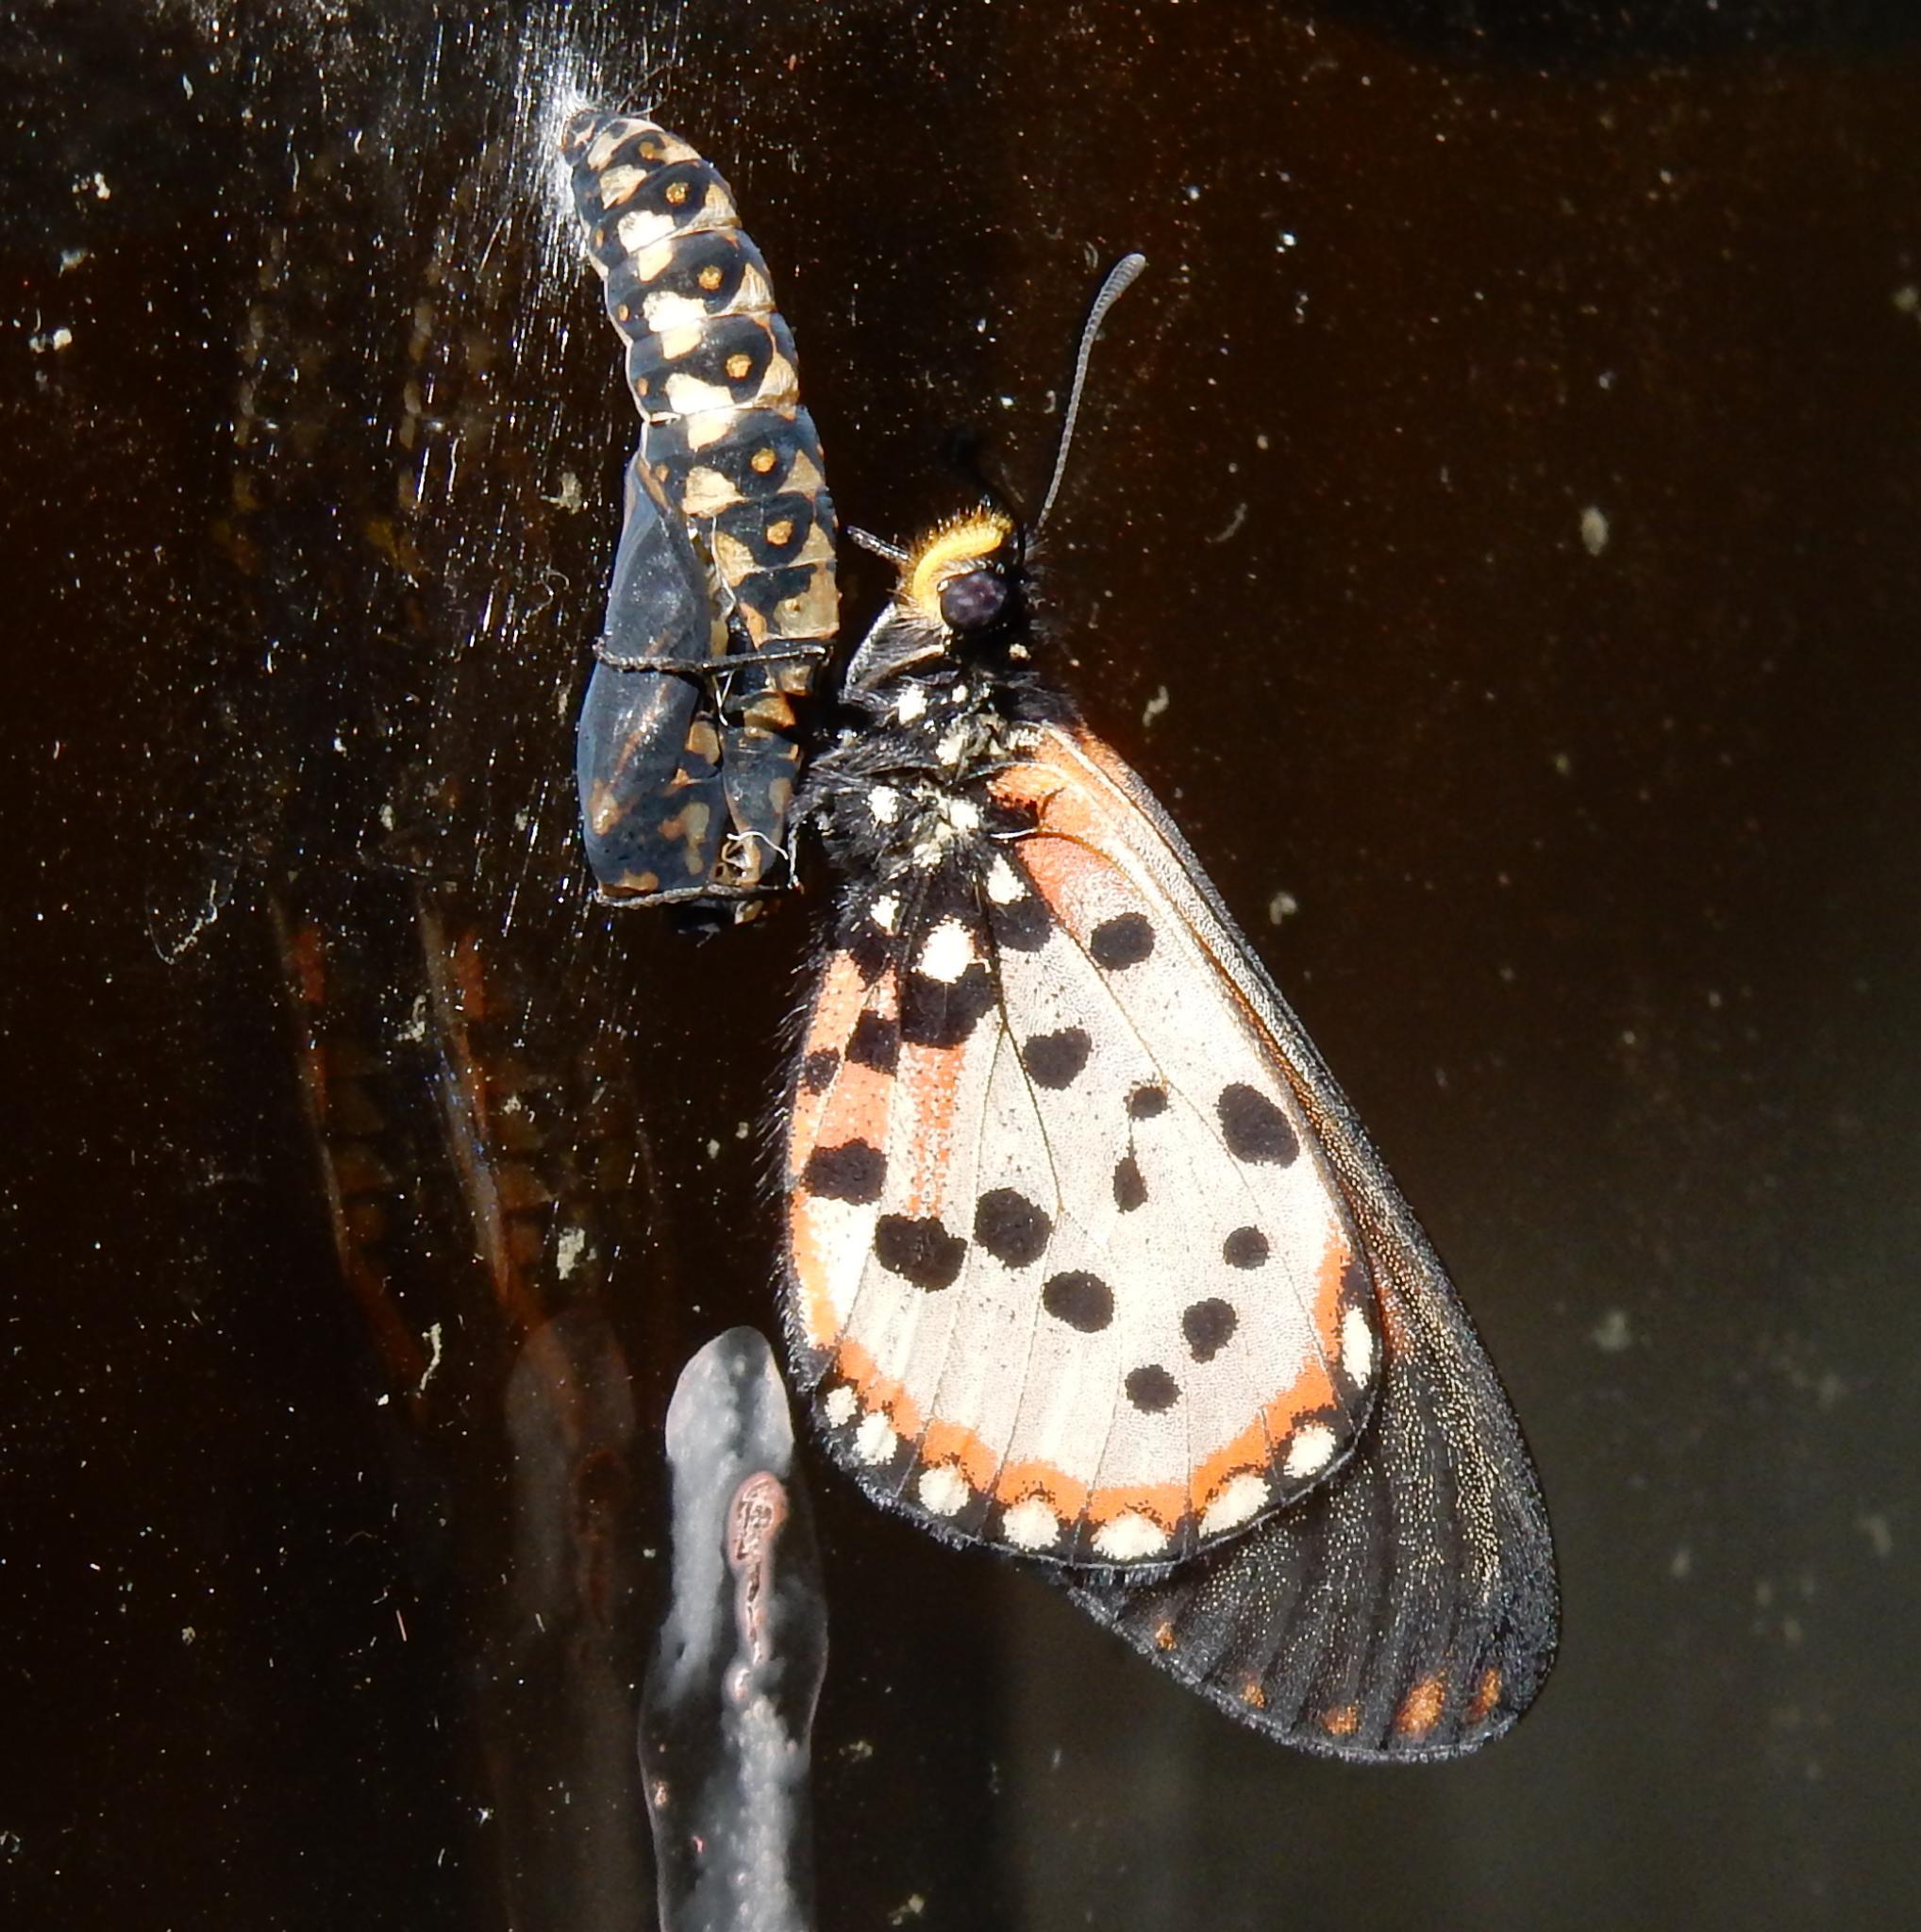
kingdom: Animalia
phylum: Arthropoda
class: Insecta
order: Lepidoptera
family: Nymphalidae
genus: Acraea
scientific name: Acraea horta
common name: Garden acraea
